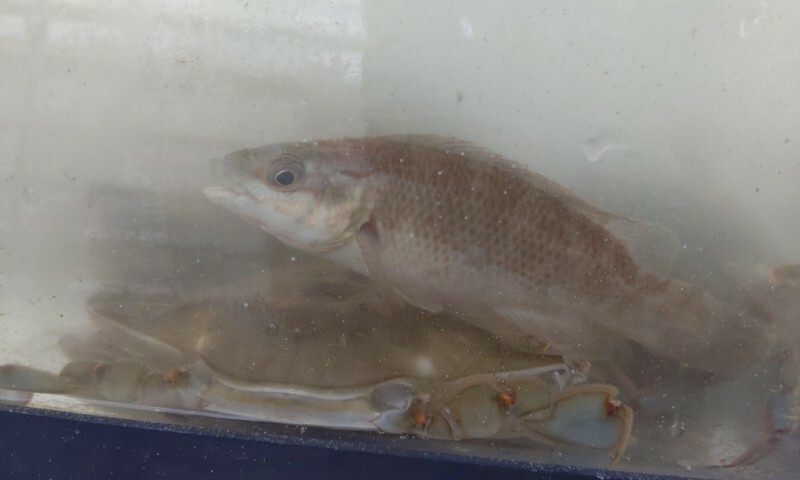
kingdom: Animalia
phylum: Chordata
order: Perciformes
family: Labridae
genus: Tautogolabrus
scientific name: Tautogolabrus adspersus
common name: Cunner
